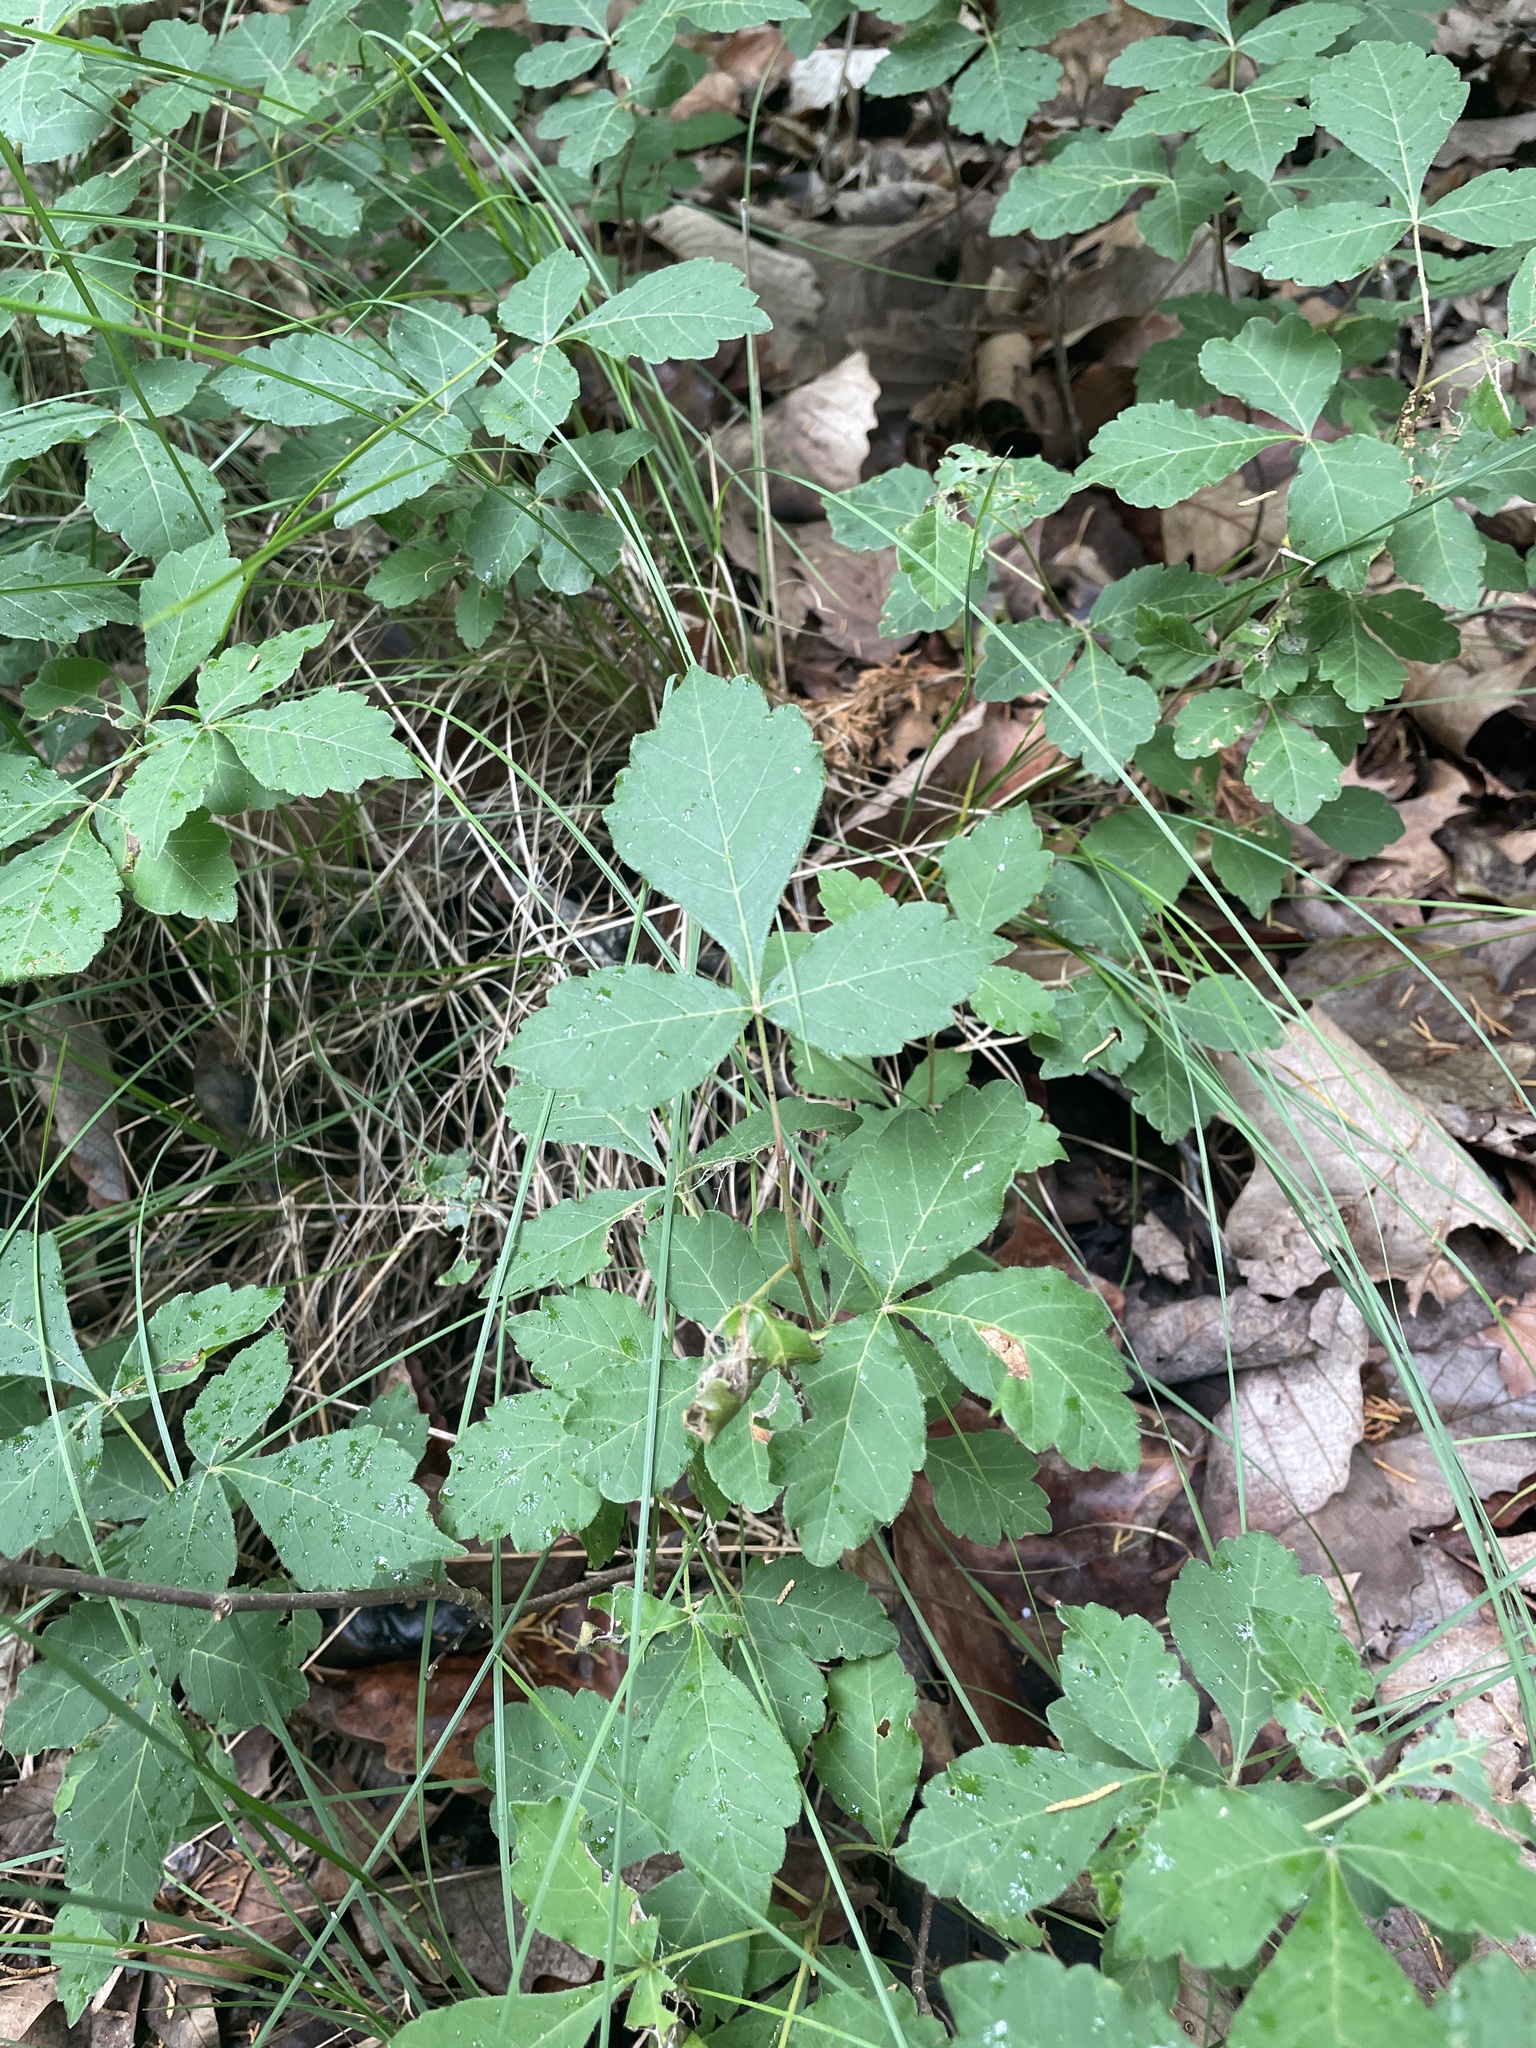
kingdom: Plantae
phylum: Tracheophyta
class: Magnoliopsida
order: Sapindales
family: Anacardiaceae
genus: Rhus
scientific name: Rhus aromatica
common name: Aromatic sumac
